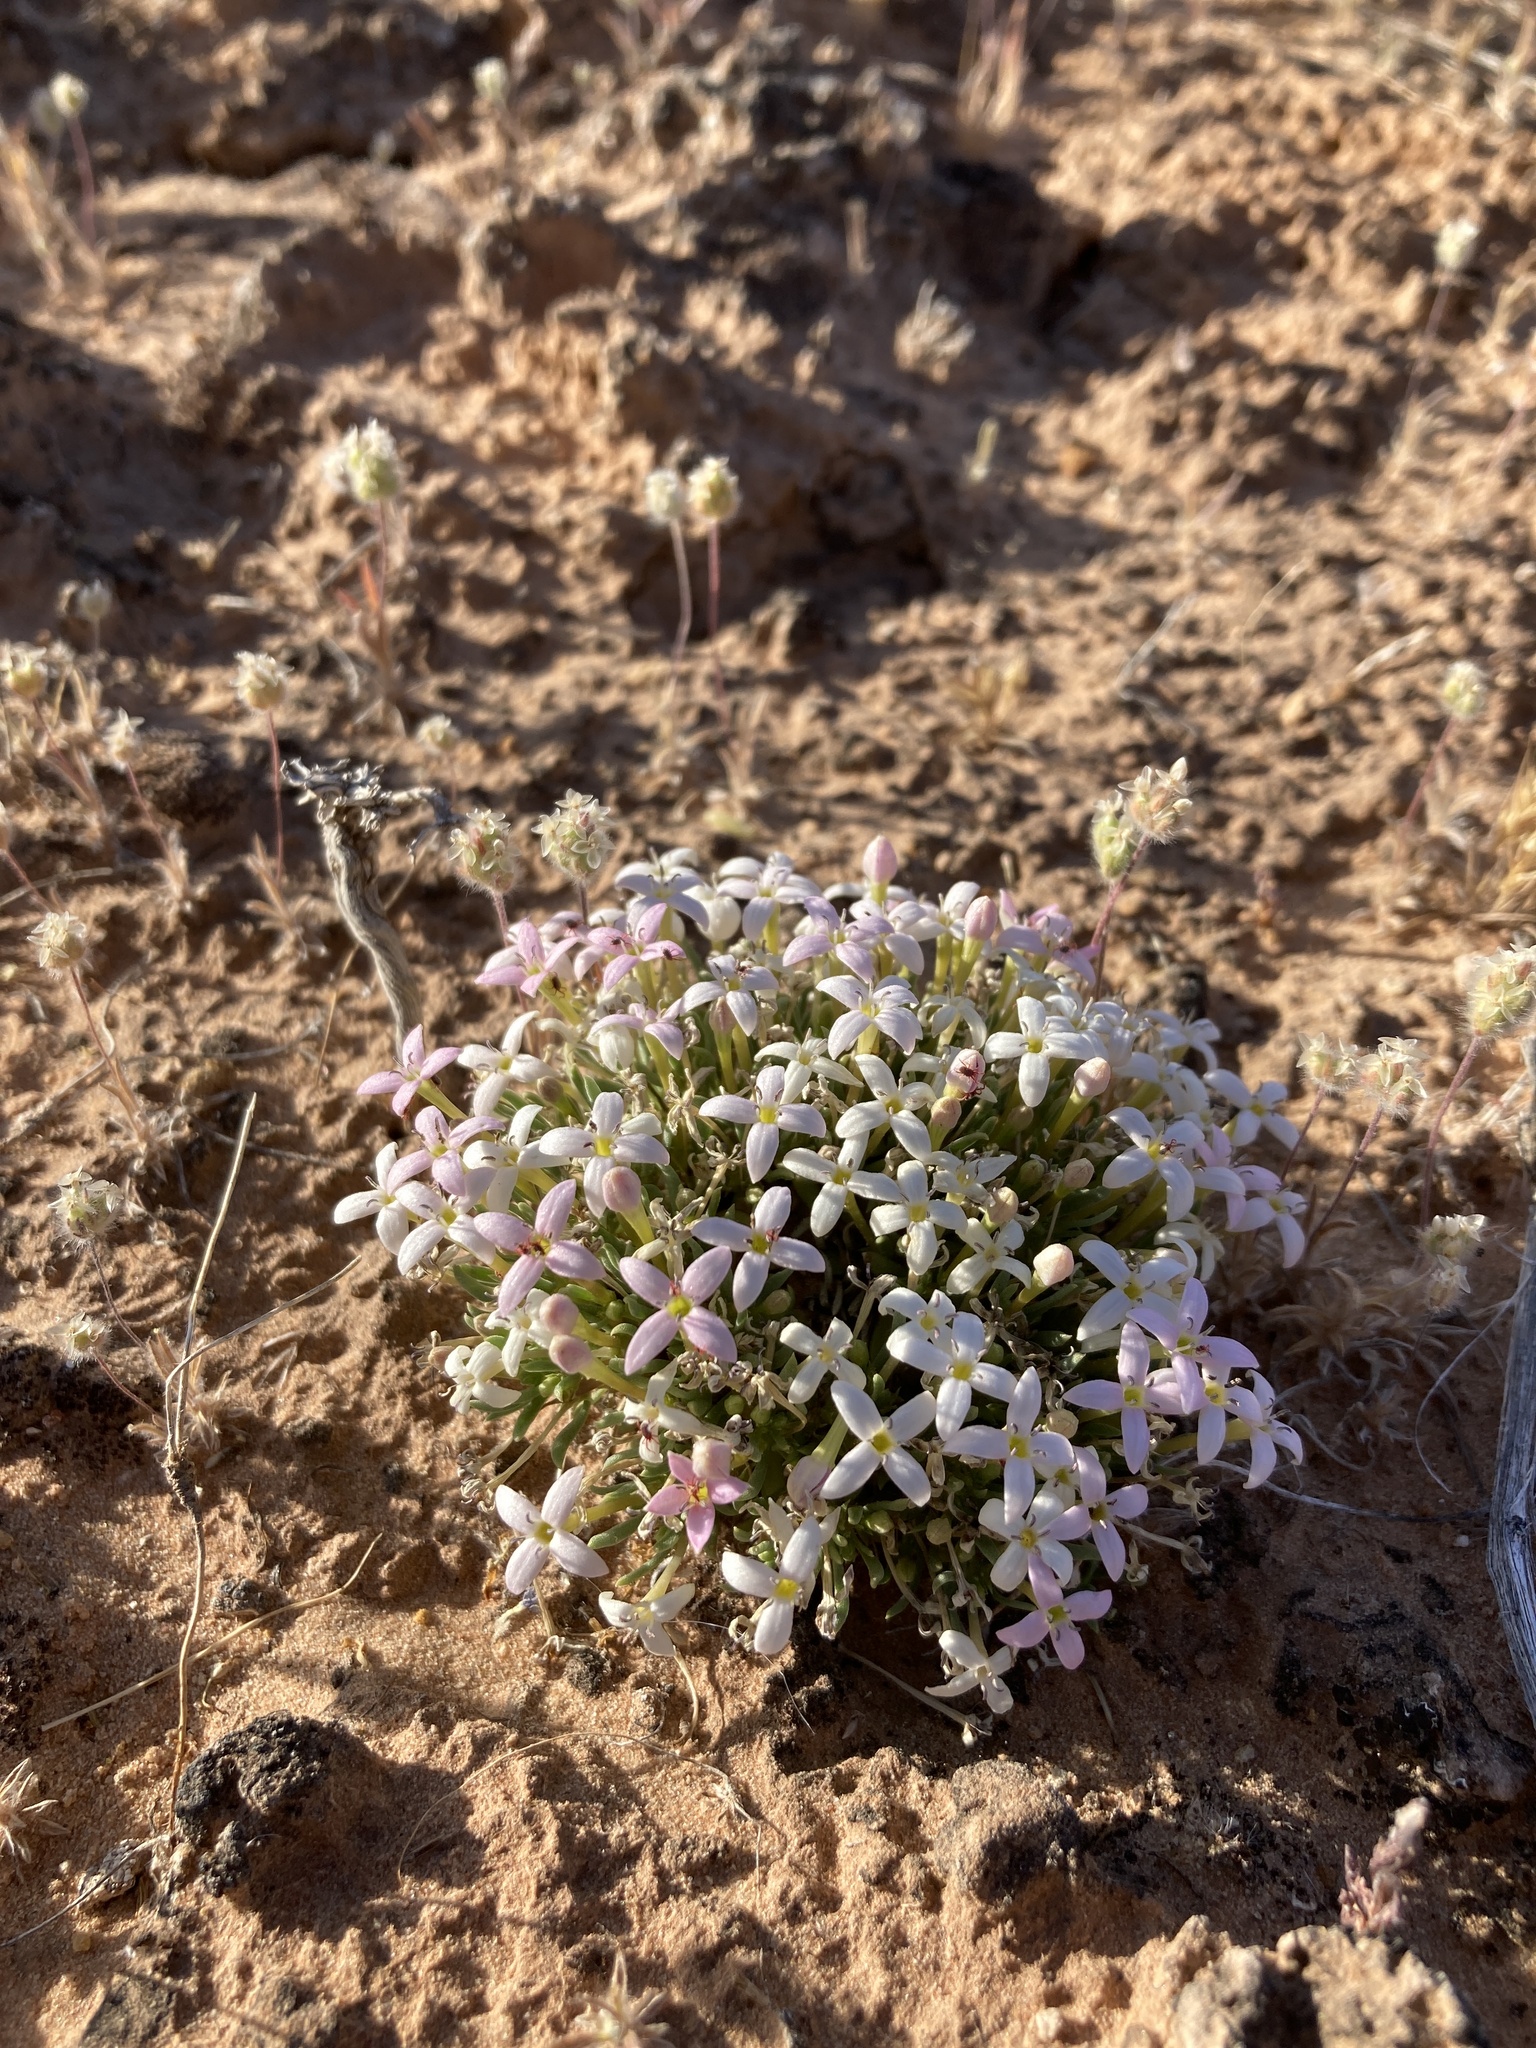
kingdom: Plantae
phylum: Tracheophyta
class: Magnoliopsida
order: Gentianales
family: Rubiaceae
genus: Houstonia
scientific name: Houstonia rubra
